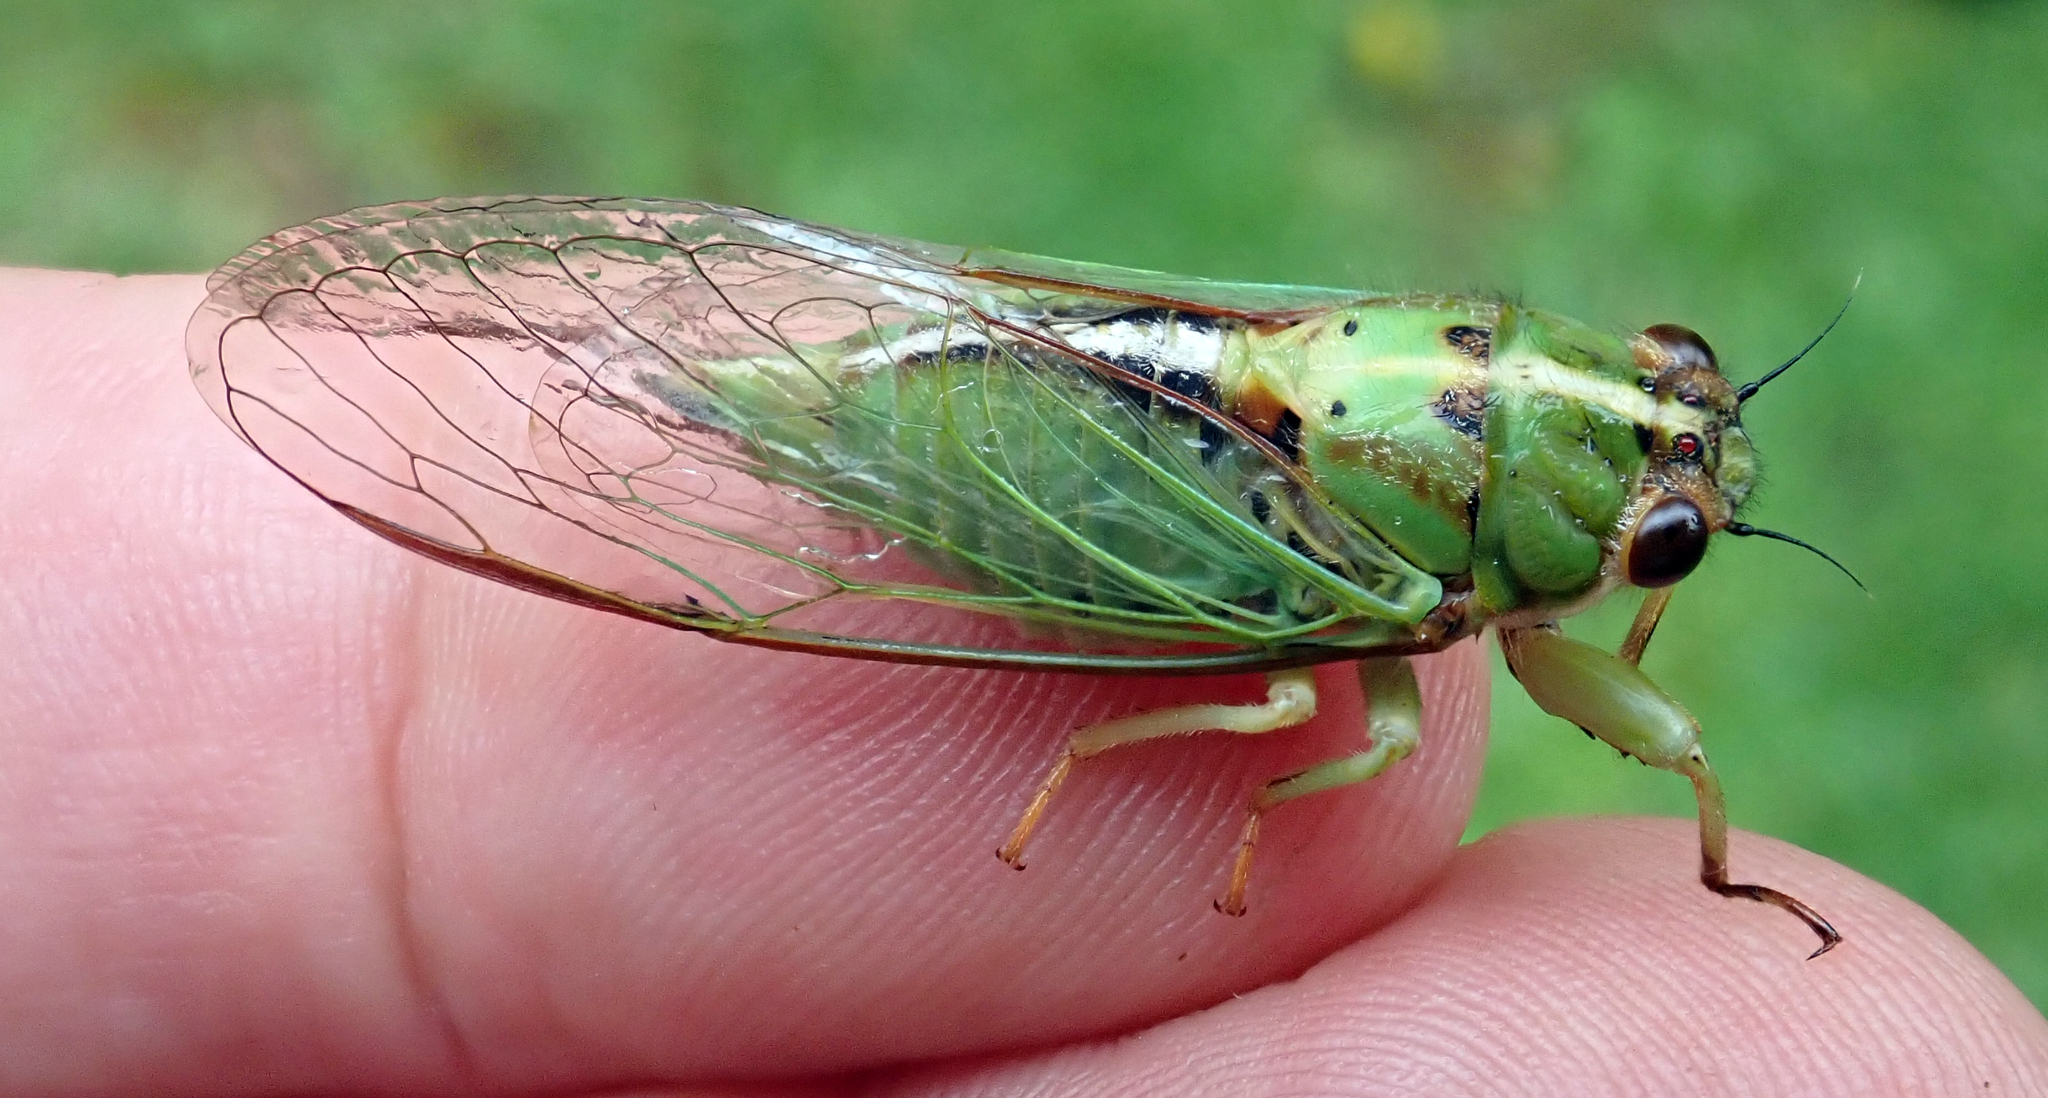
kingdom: Animalia
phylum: Arthropoda
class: Insecta
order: Hemiptera
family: Cicadidae
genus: Kikihia
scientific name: Kikihia longula
